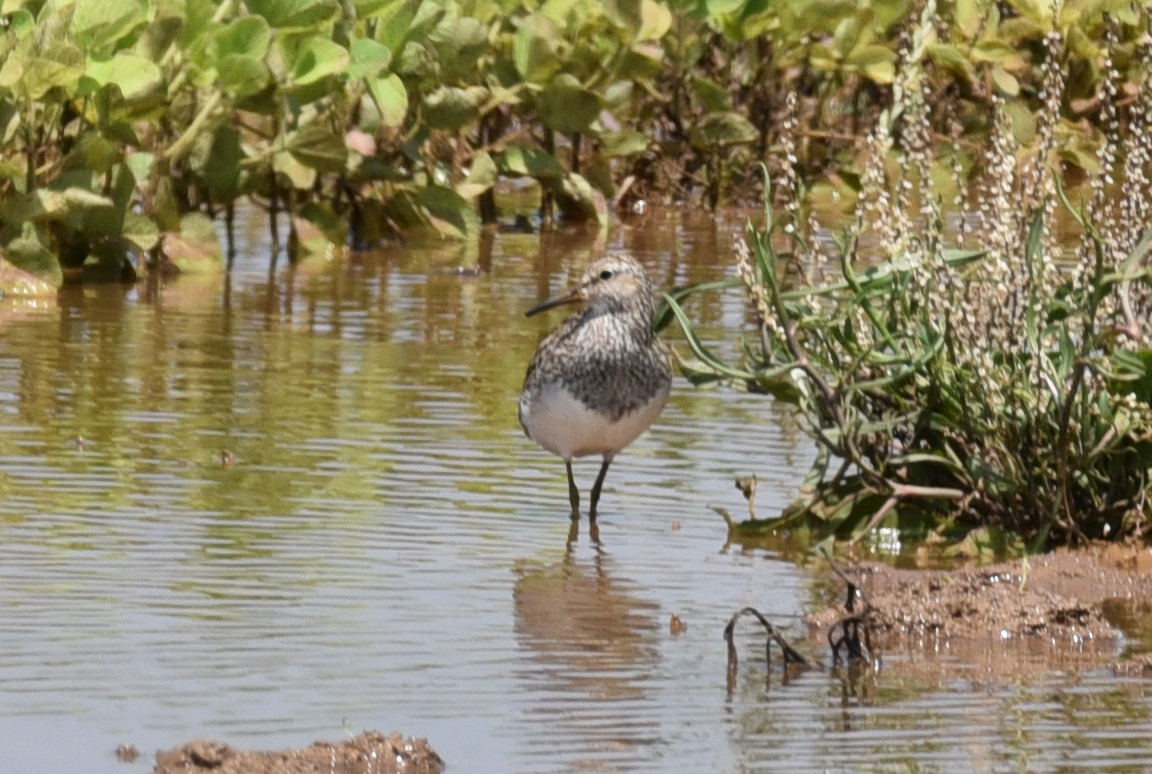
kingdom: Animalia
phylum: Chordata
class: Aves
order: Charadriiformes
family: Scolopacidae
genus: Calidris
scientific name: Calidris melanotos
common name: Pectoral sandpiper
